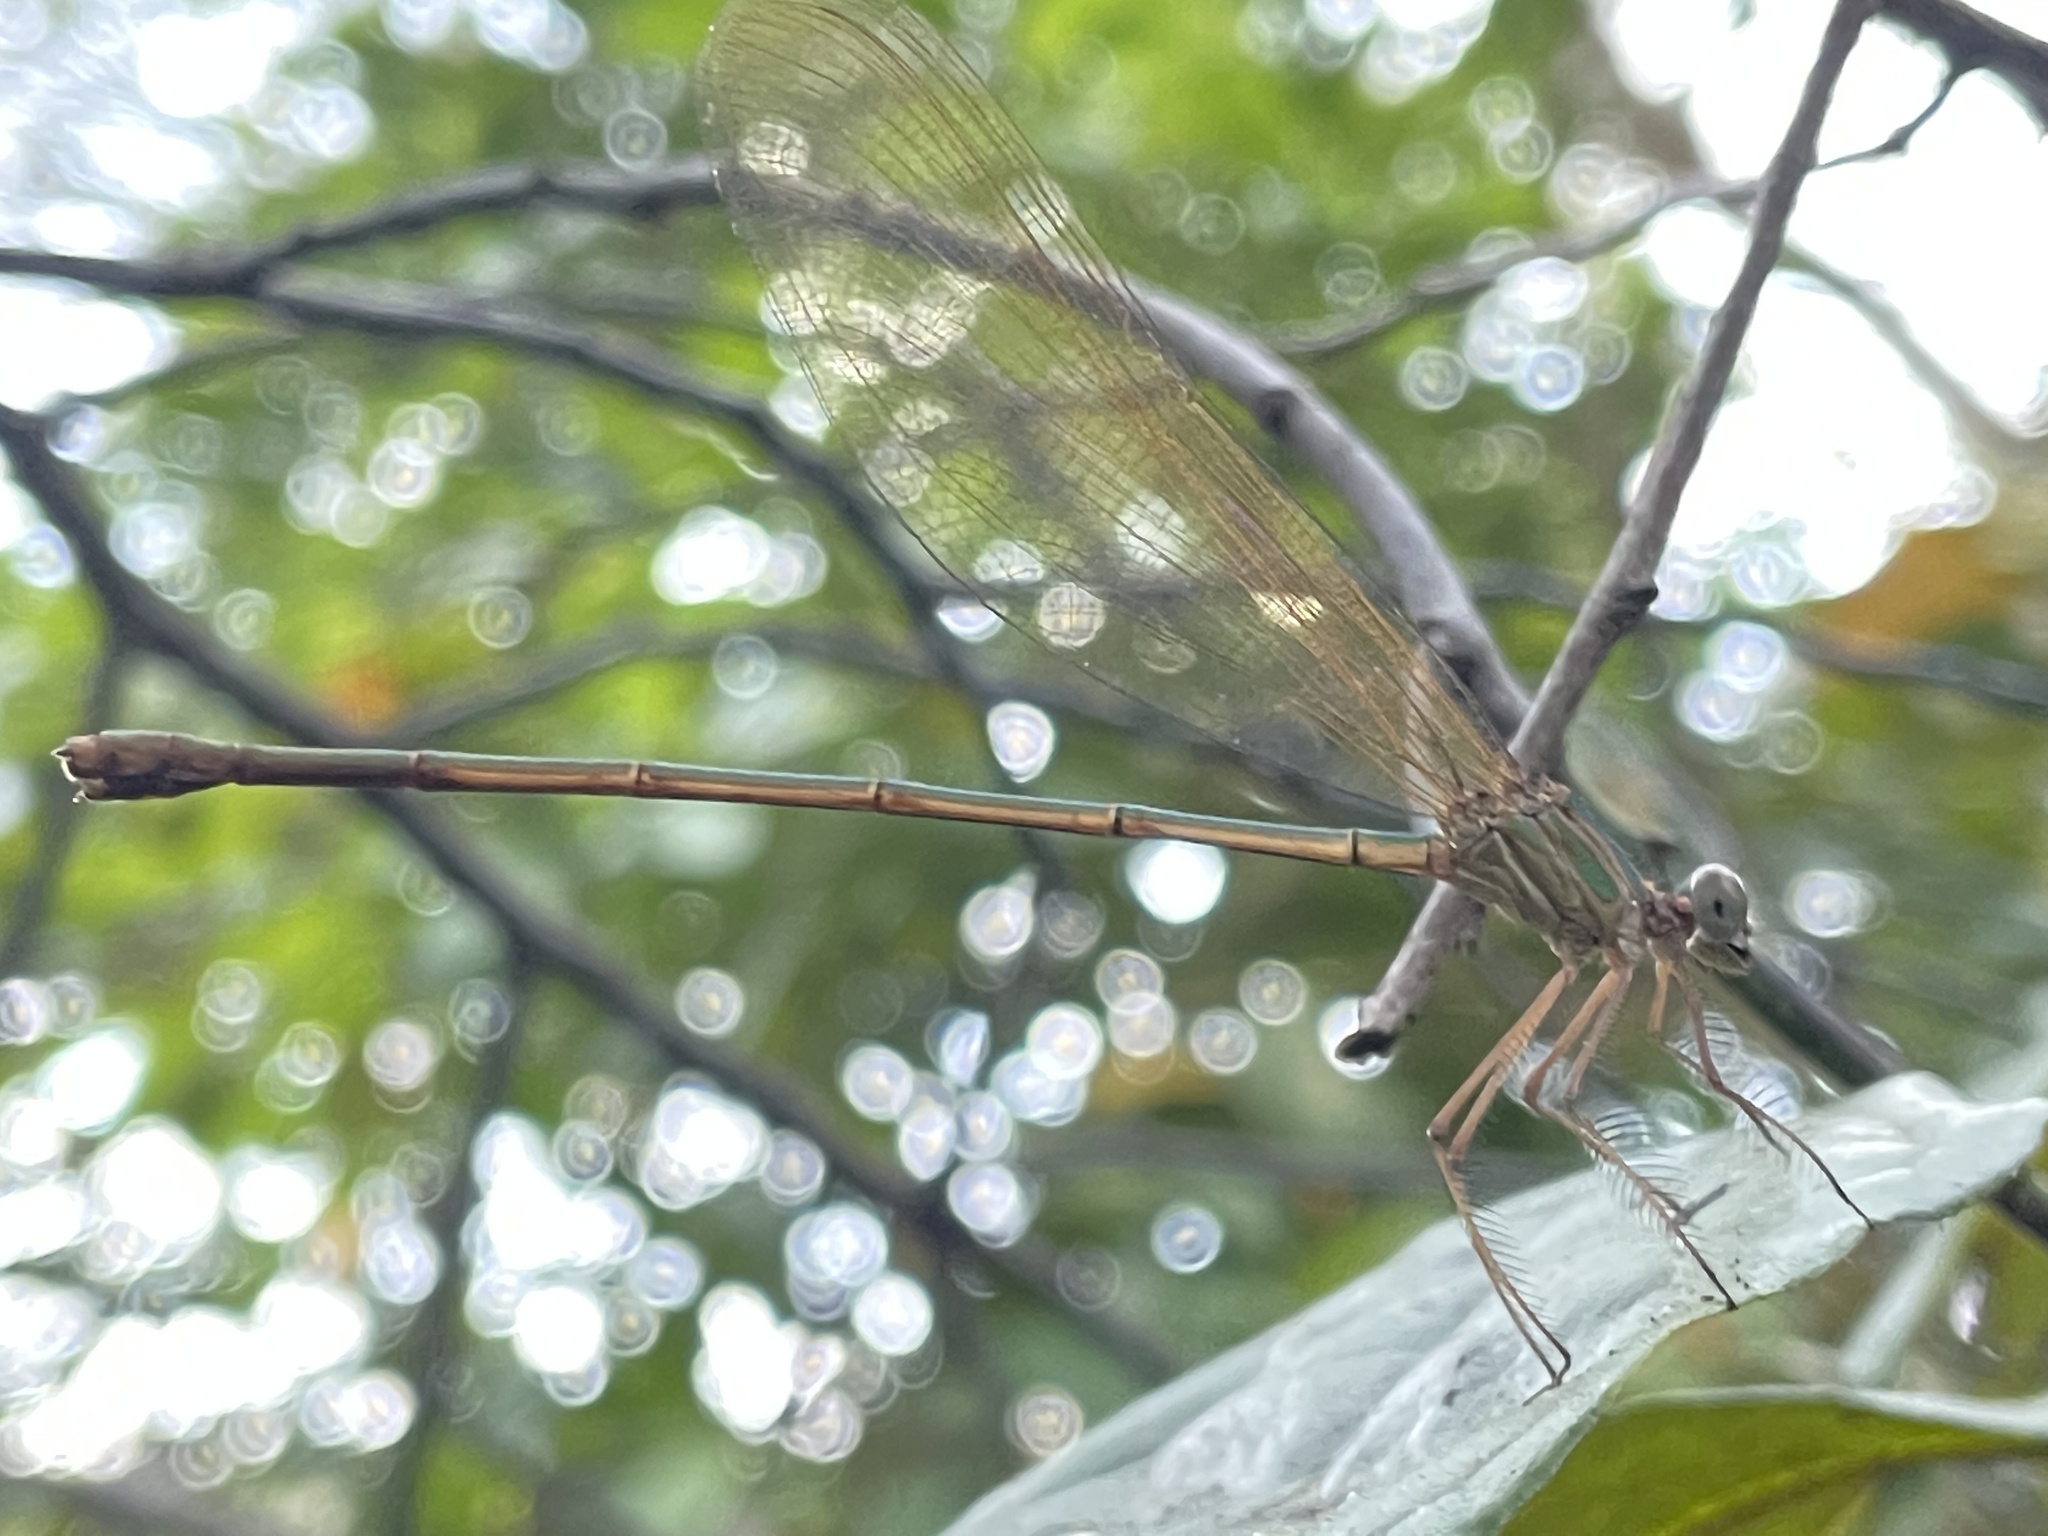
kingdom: Animalia
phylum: Arthropoda
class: Insecta
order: Odonata
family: Calopterygidae
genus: Phaon
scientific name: Phaon iridipennis
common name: Glistening demoiselle
